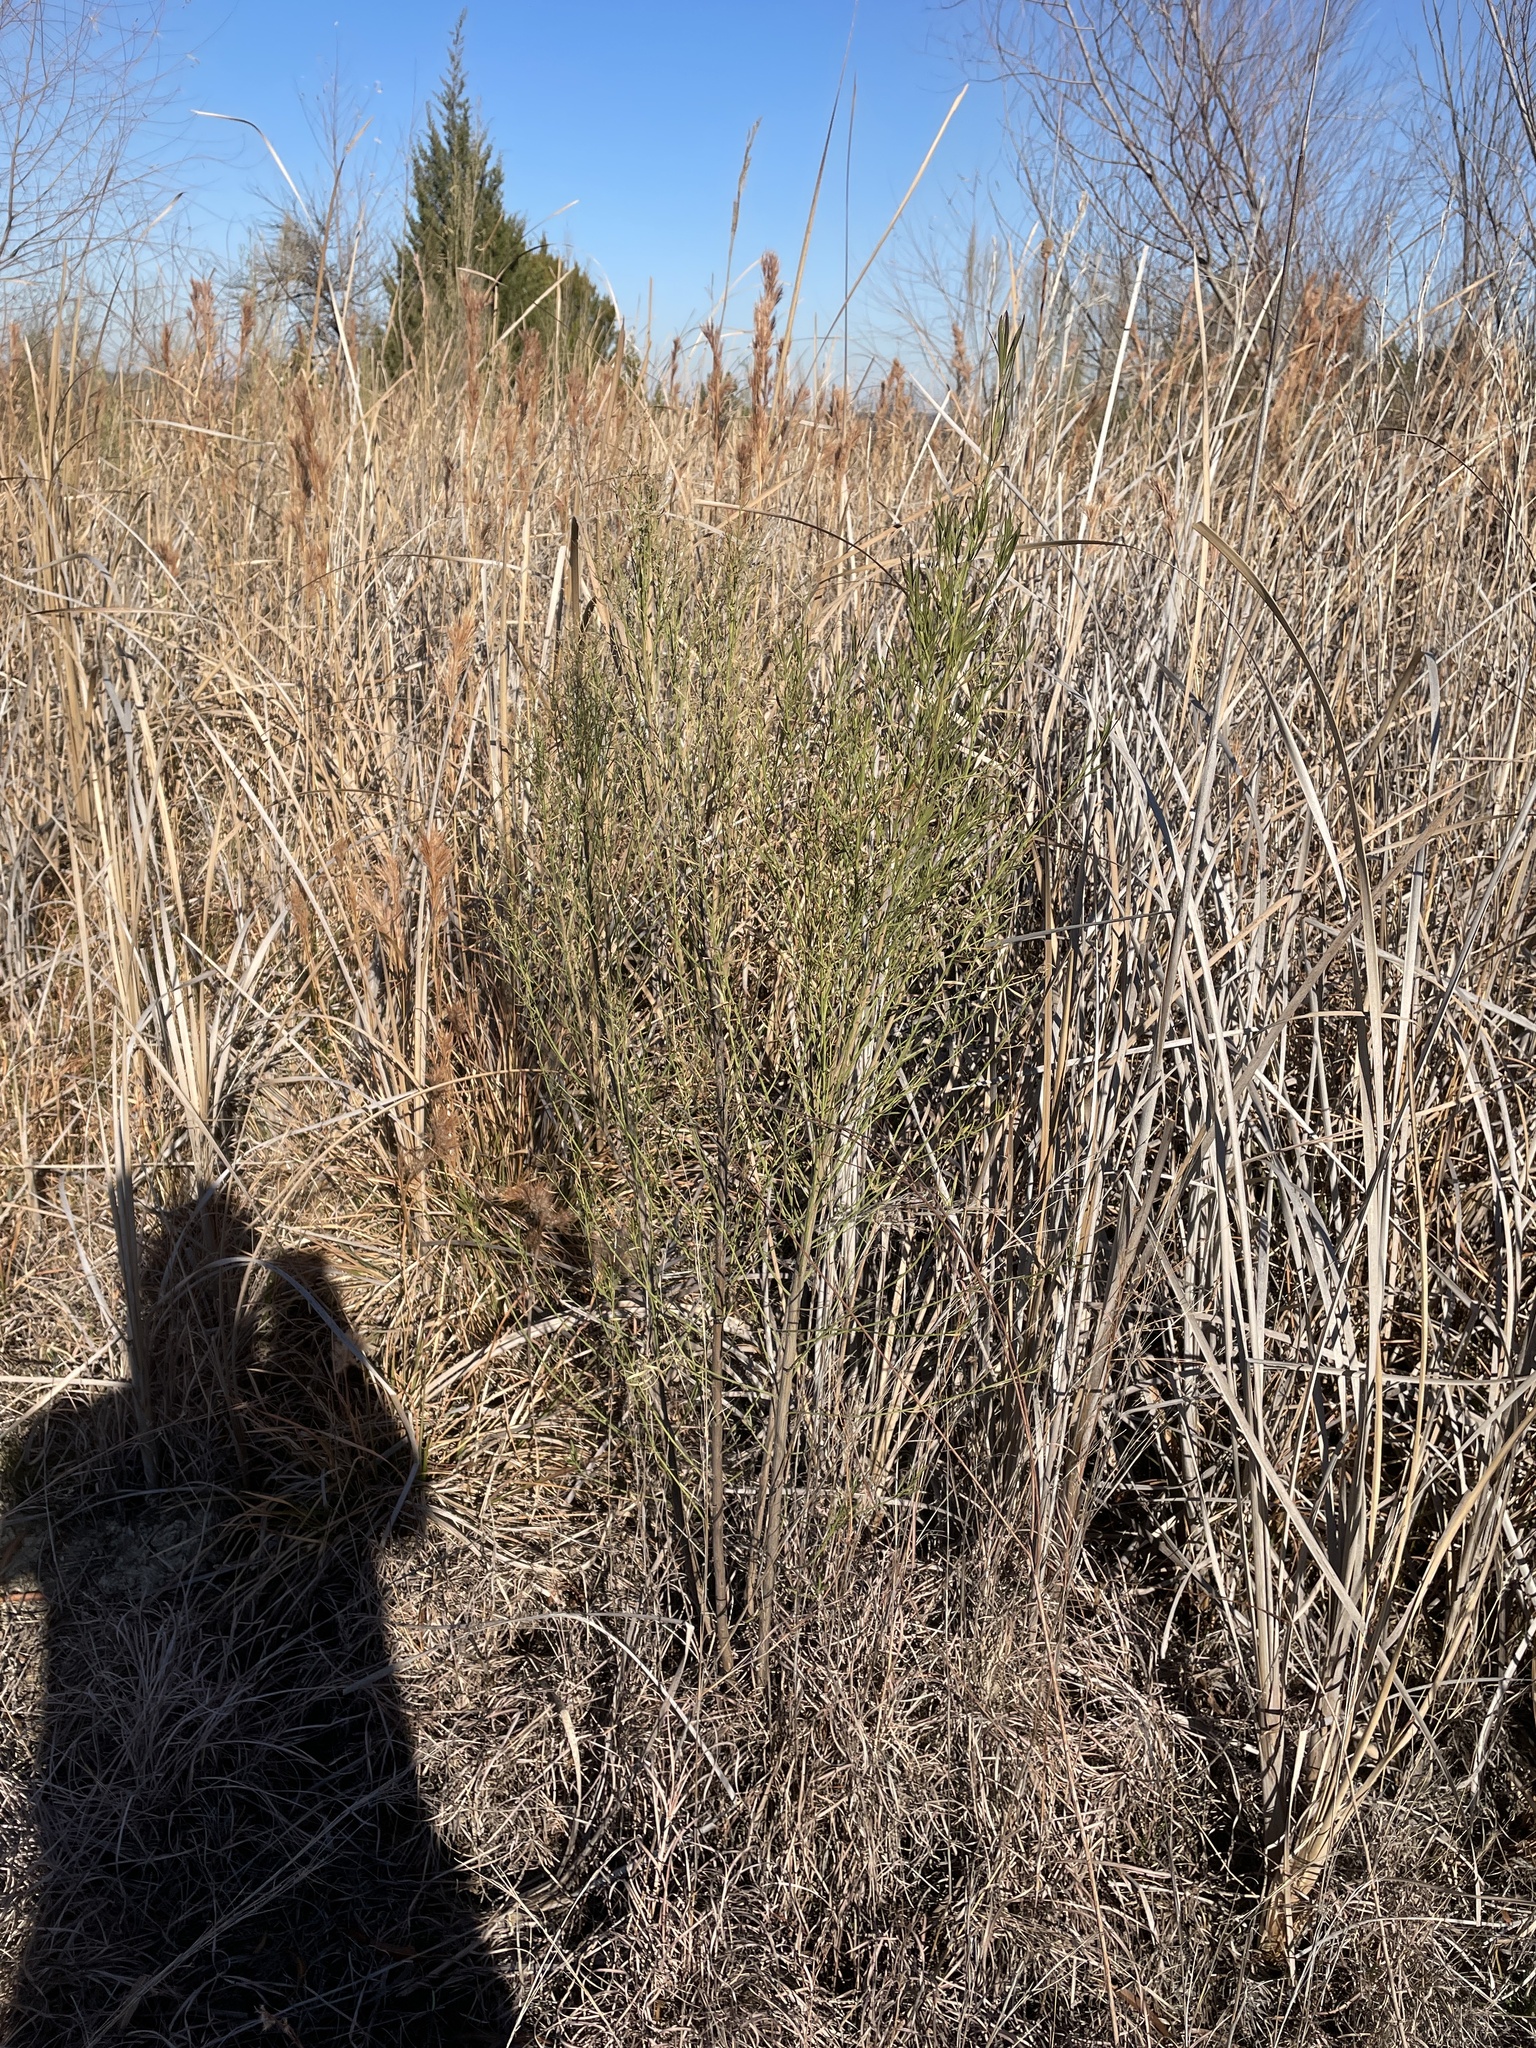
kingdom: Plantae
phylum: Tracheophyta
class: Magnoliopsida
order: Asterales
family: Asteraceae
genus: Baccharis
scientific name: Baccharis neglecta
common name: Roosevelt-weed
